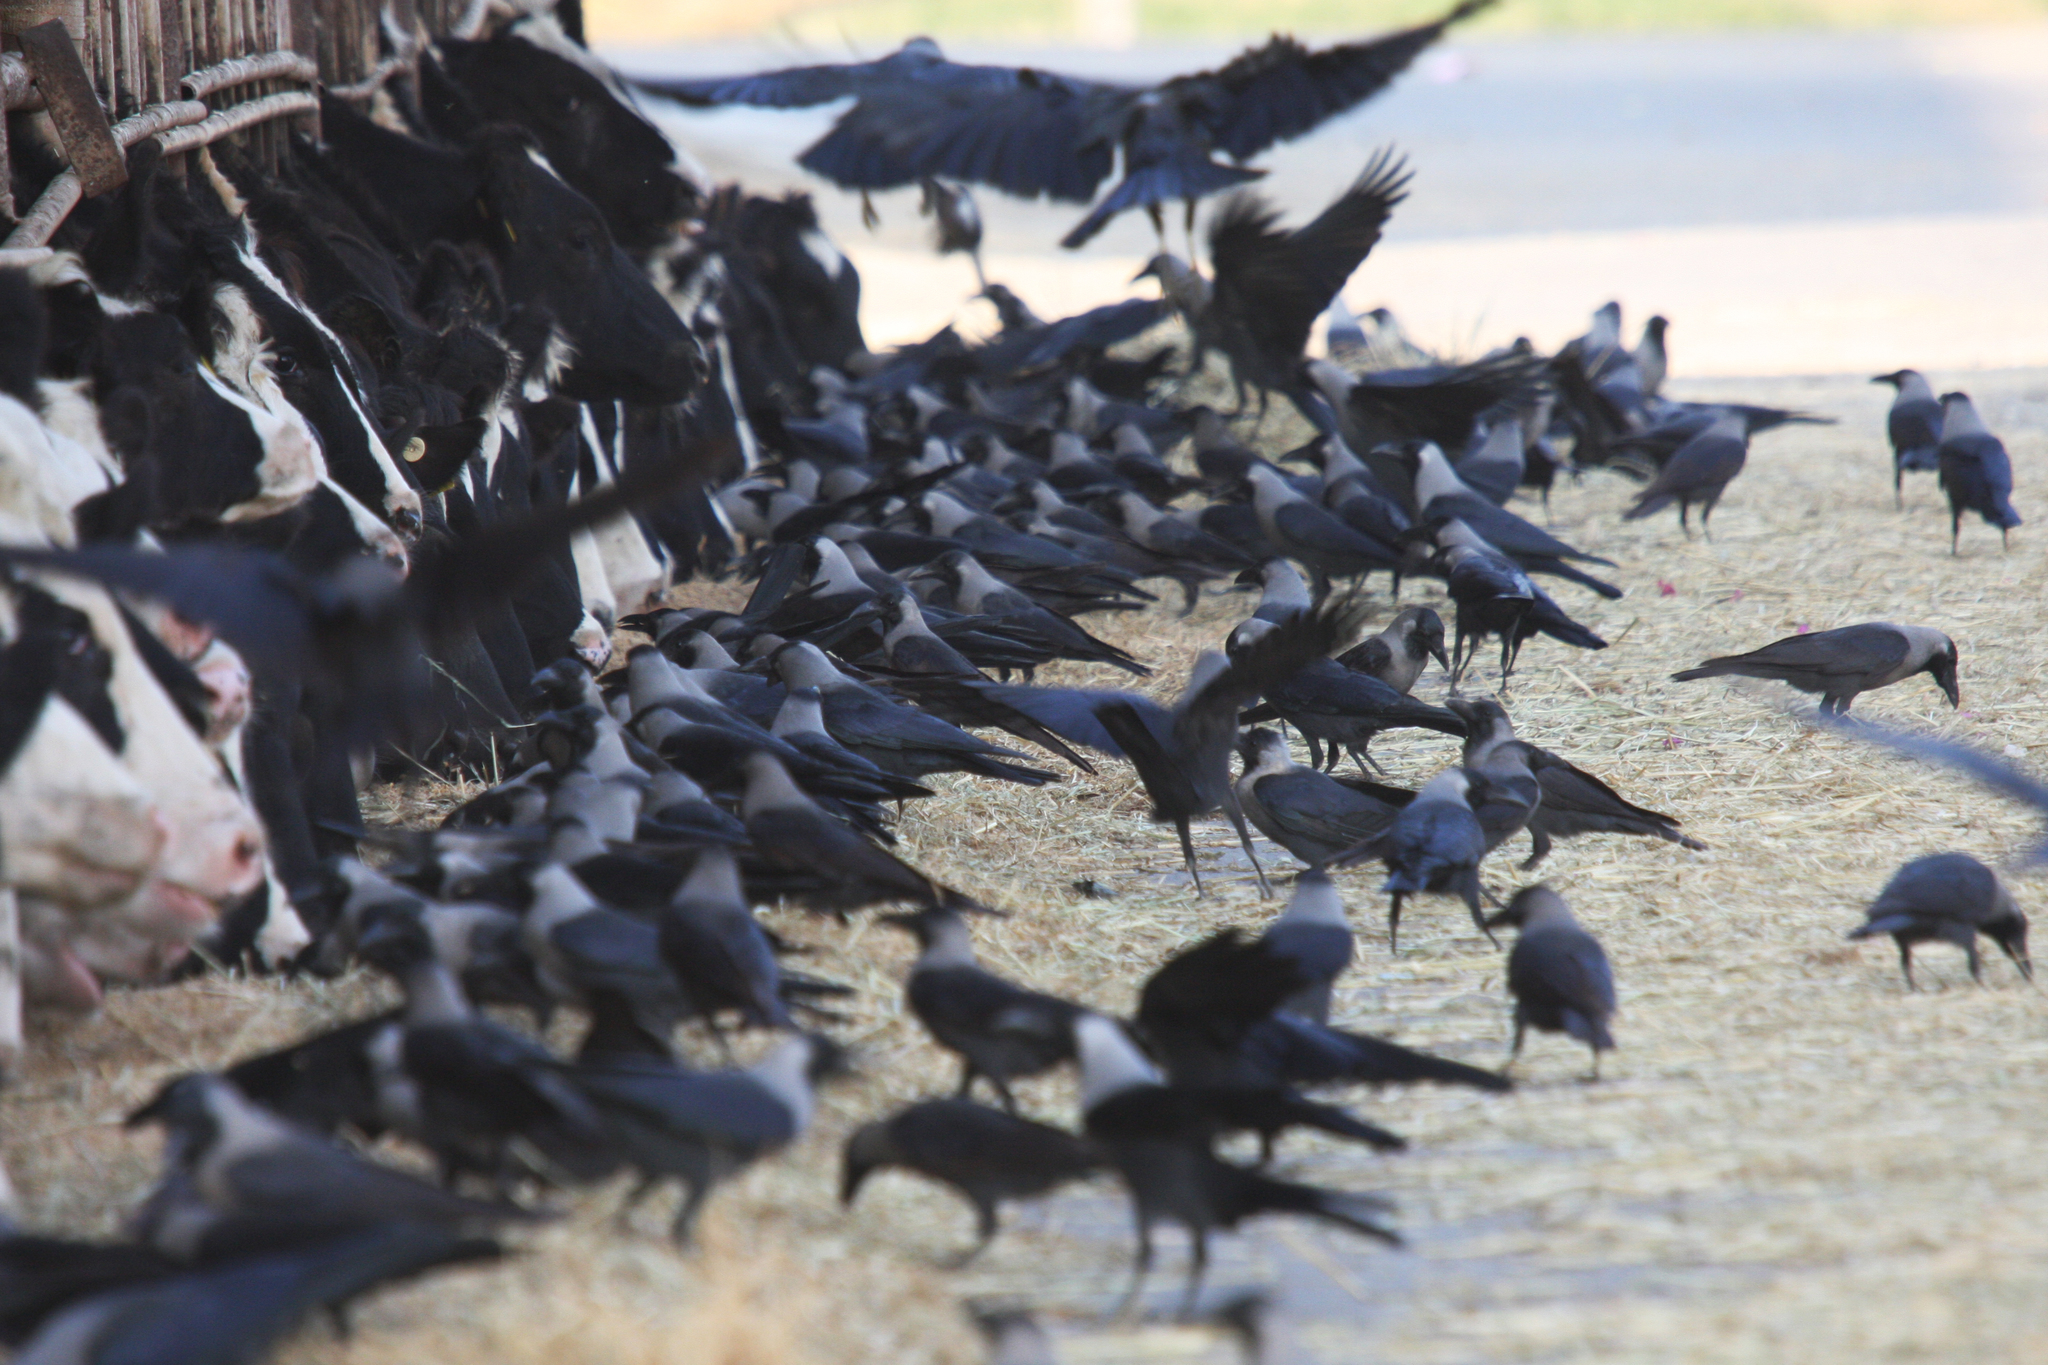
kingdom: Animalia
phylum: Chordata
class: Aves
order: Passeriformes
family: Corvidae
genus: Corvus
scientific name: Corvus splendens
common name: House crow
